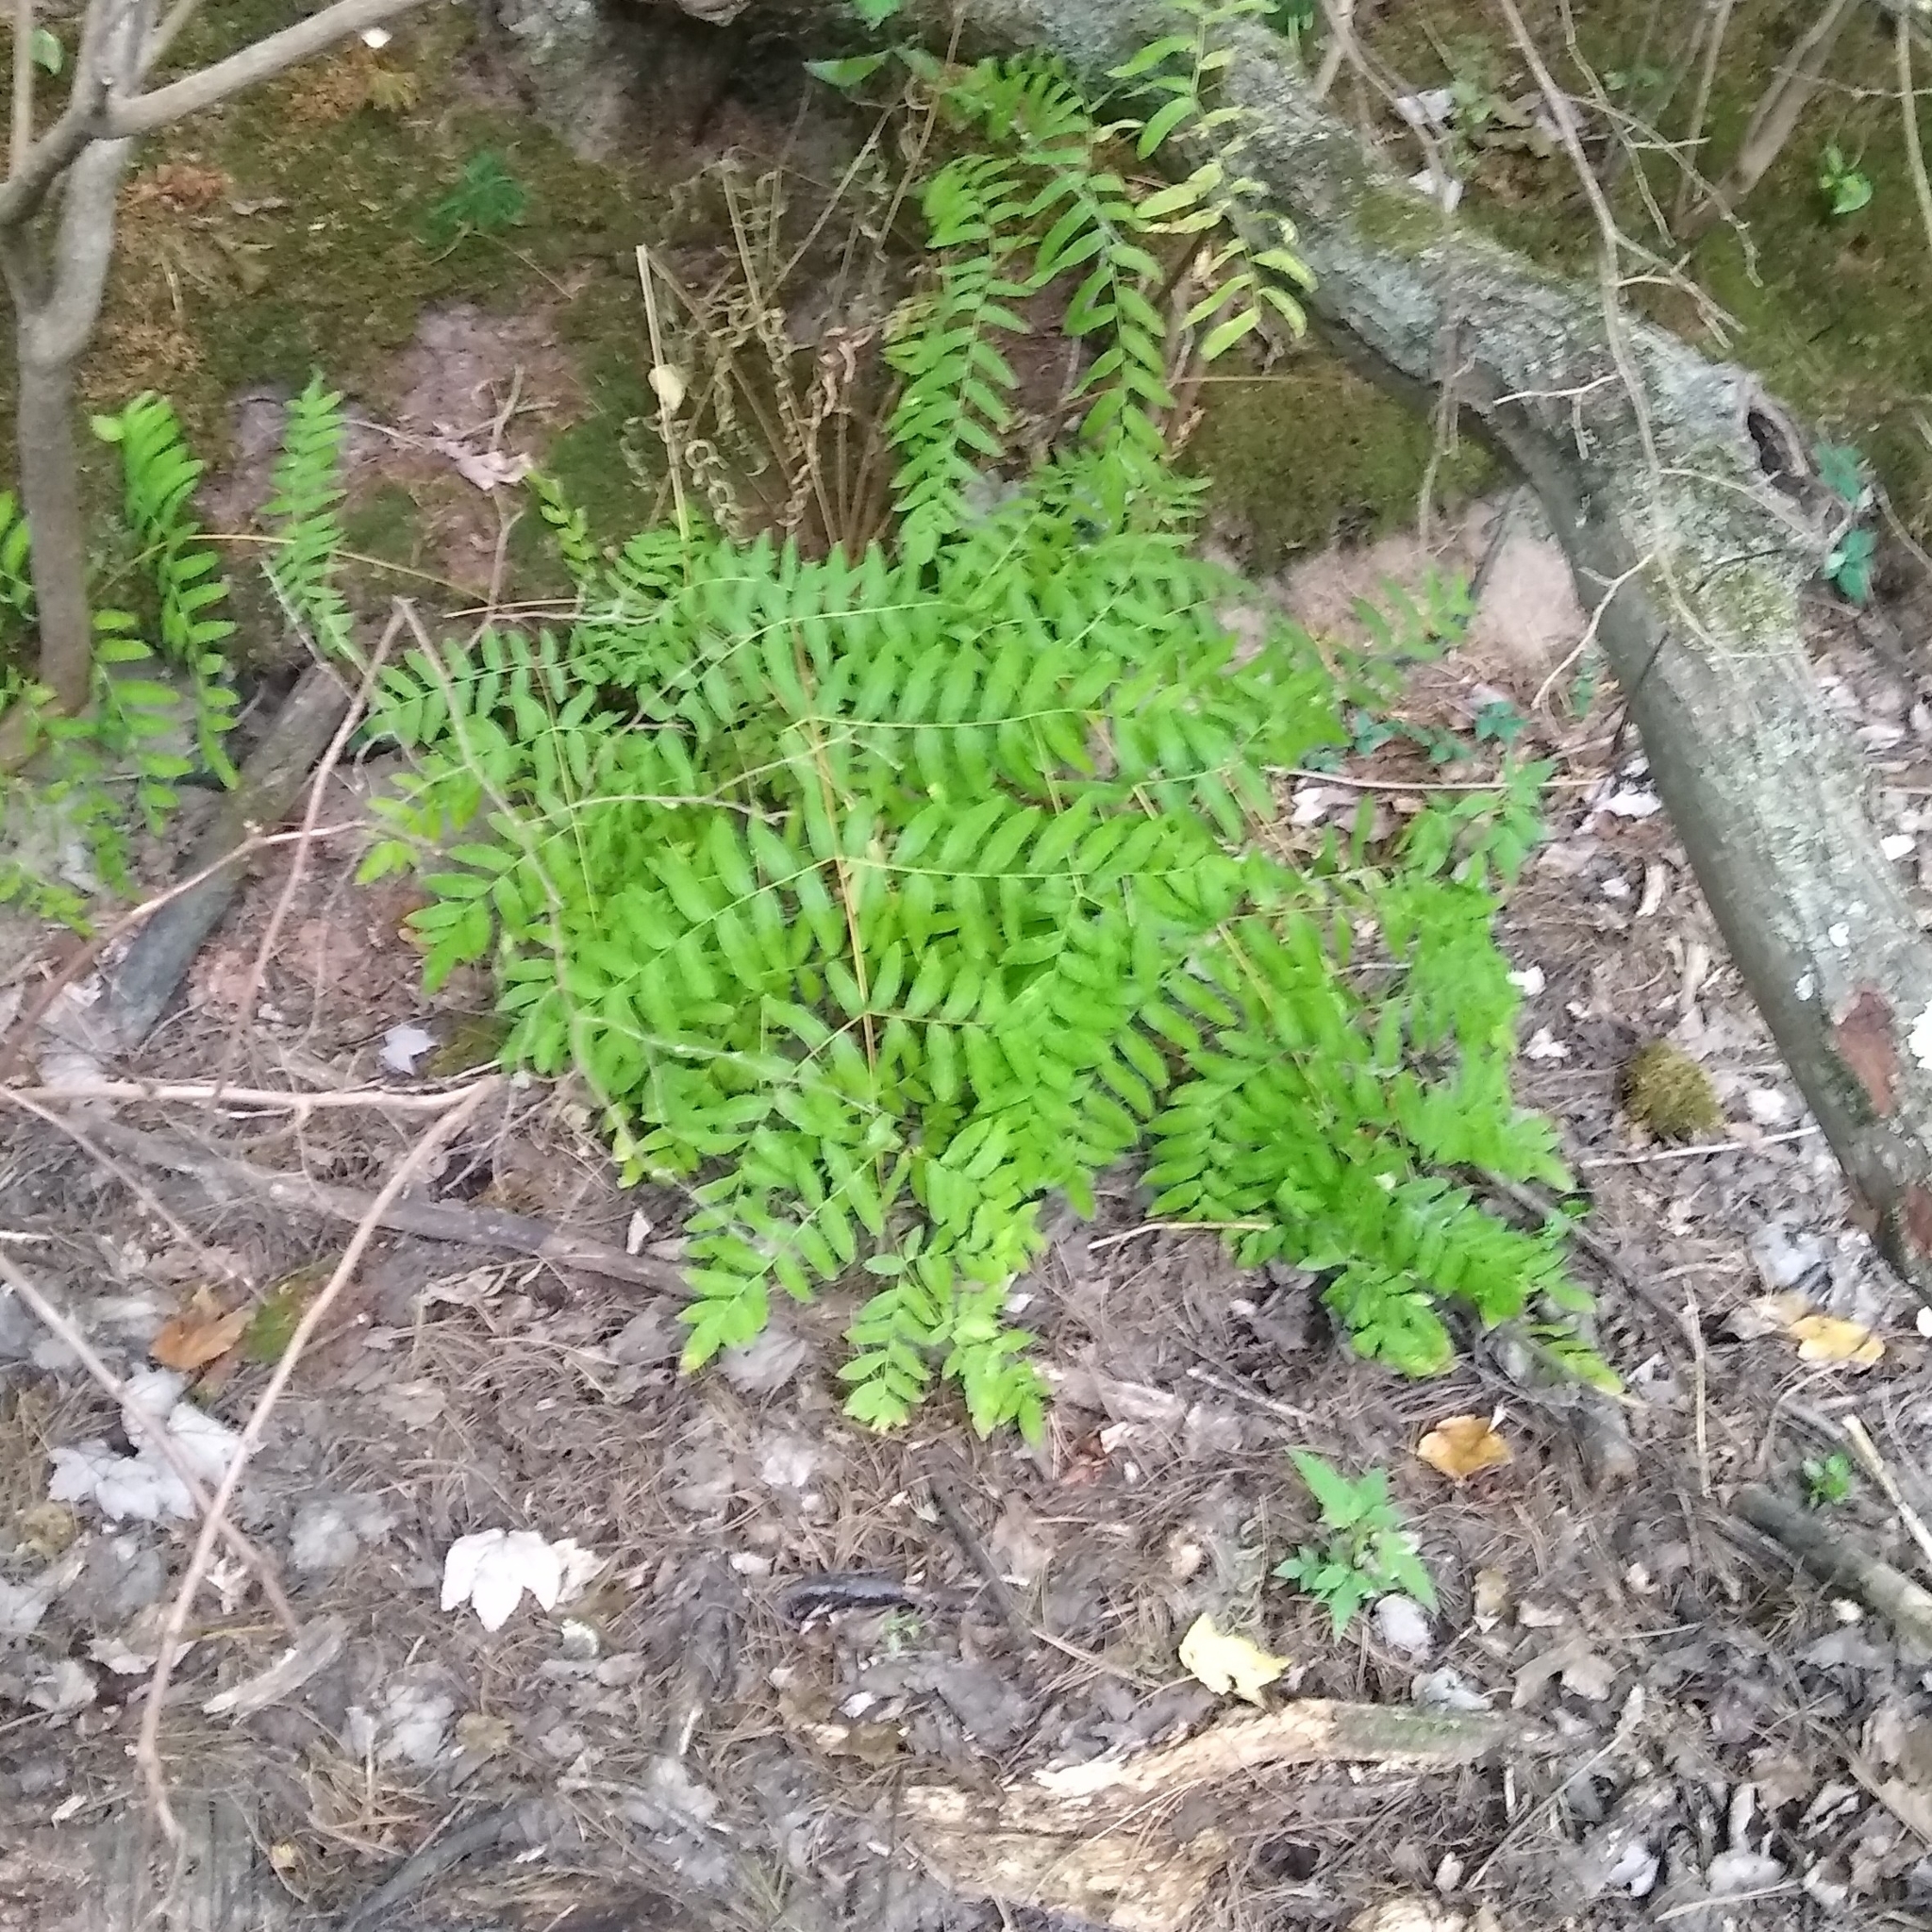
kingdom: Plantae
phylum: Tracheophyta
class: Polypodiopsida
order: Osmundales
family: Osmundaceae
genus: Osmunda
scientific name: Osmunda spectabilis
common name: American royal fern
